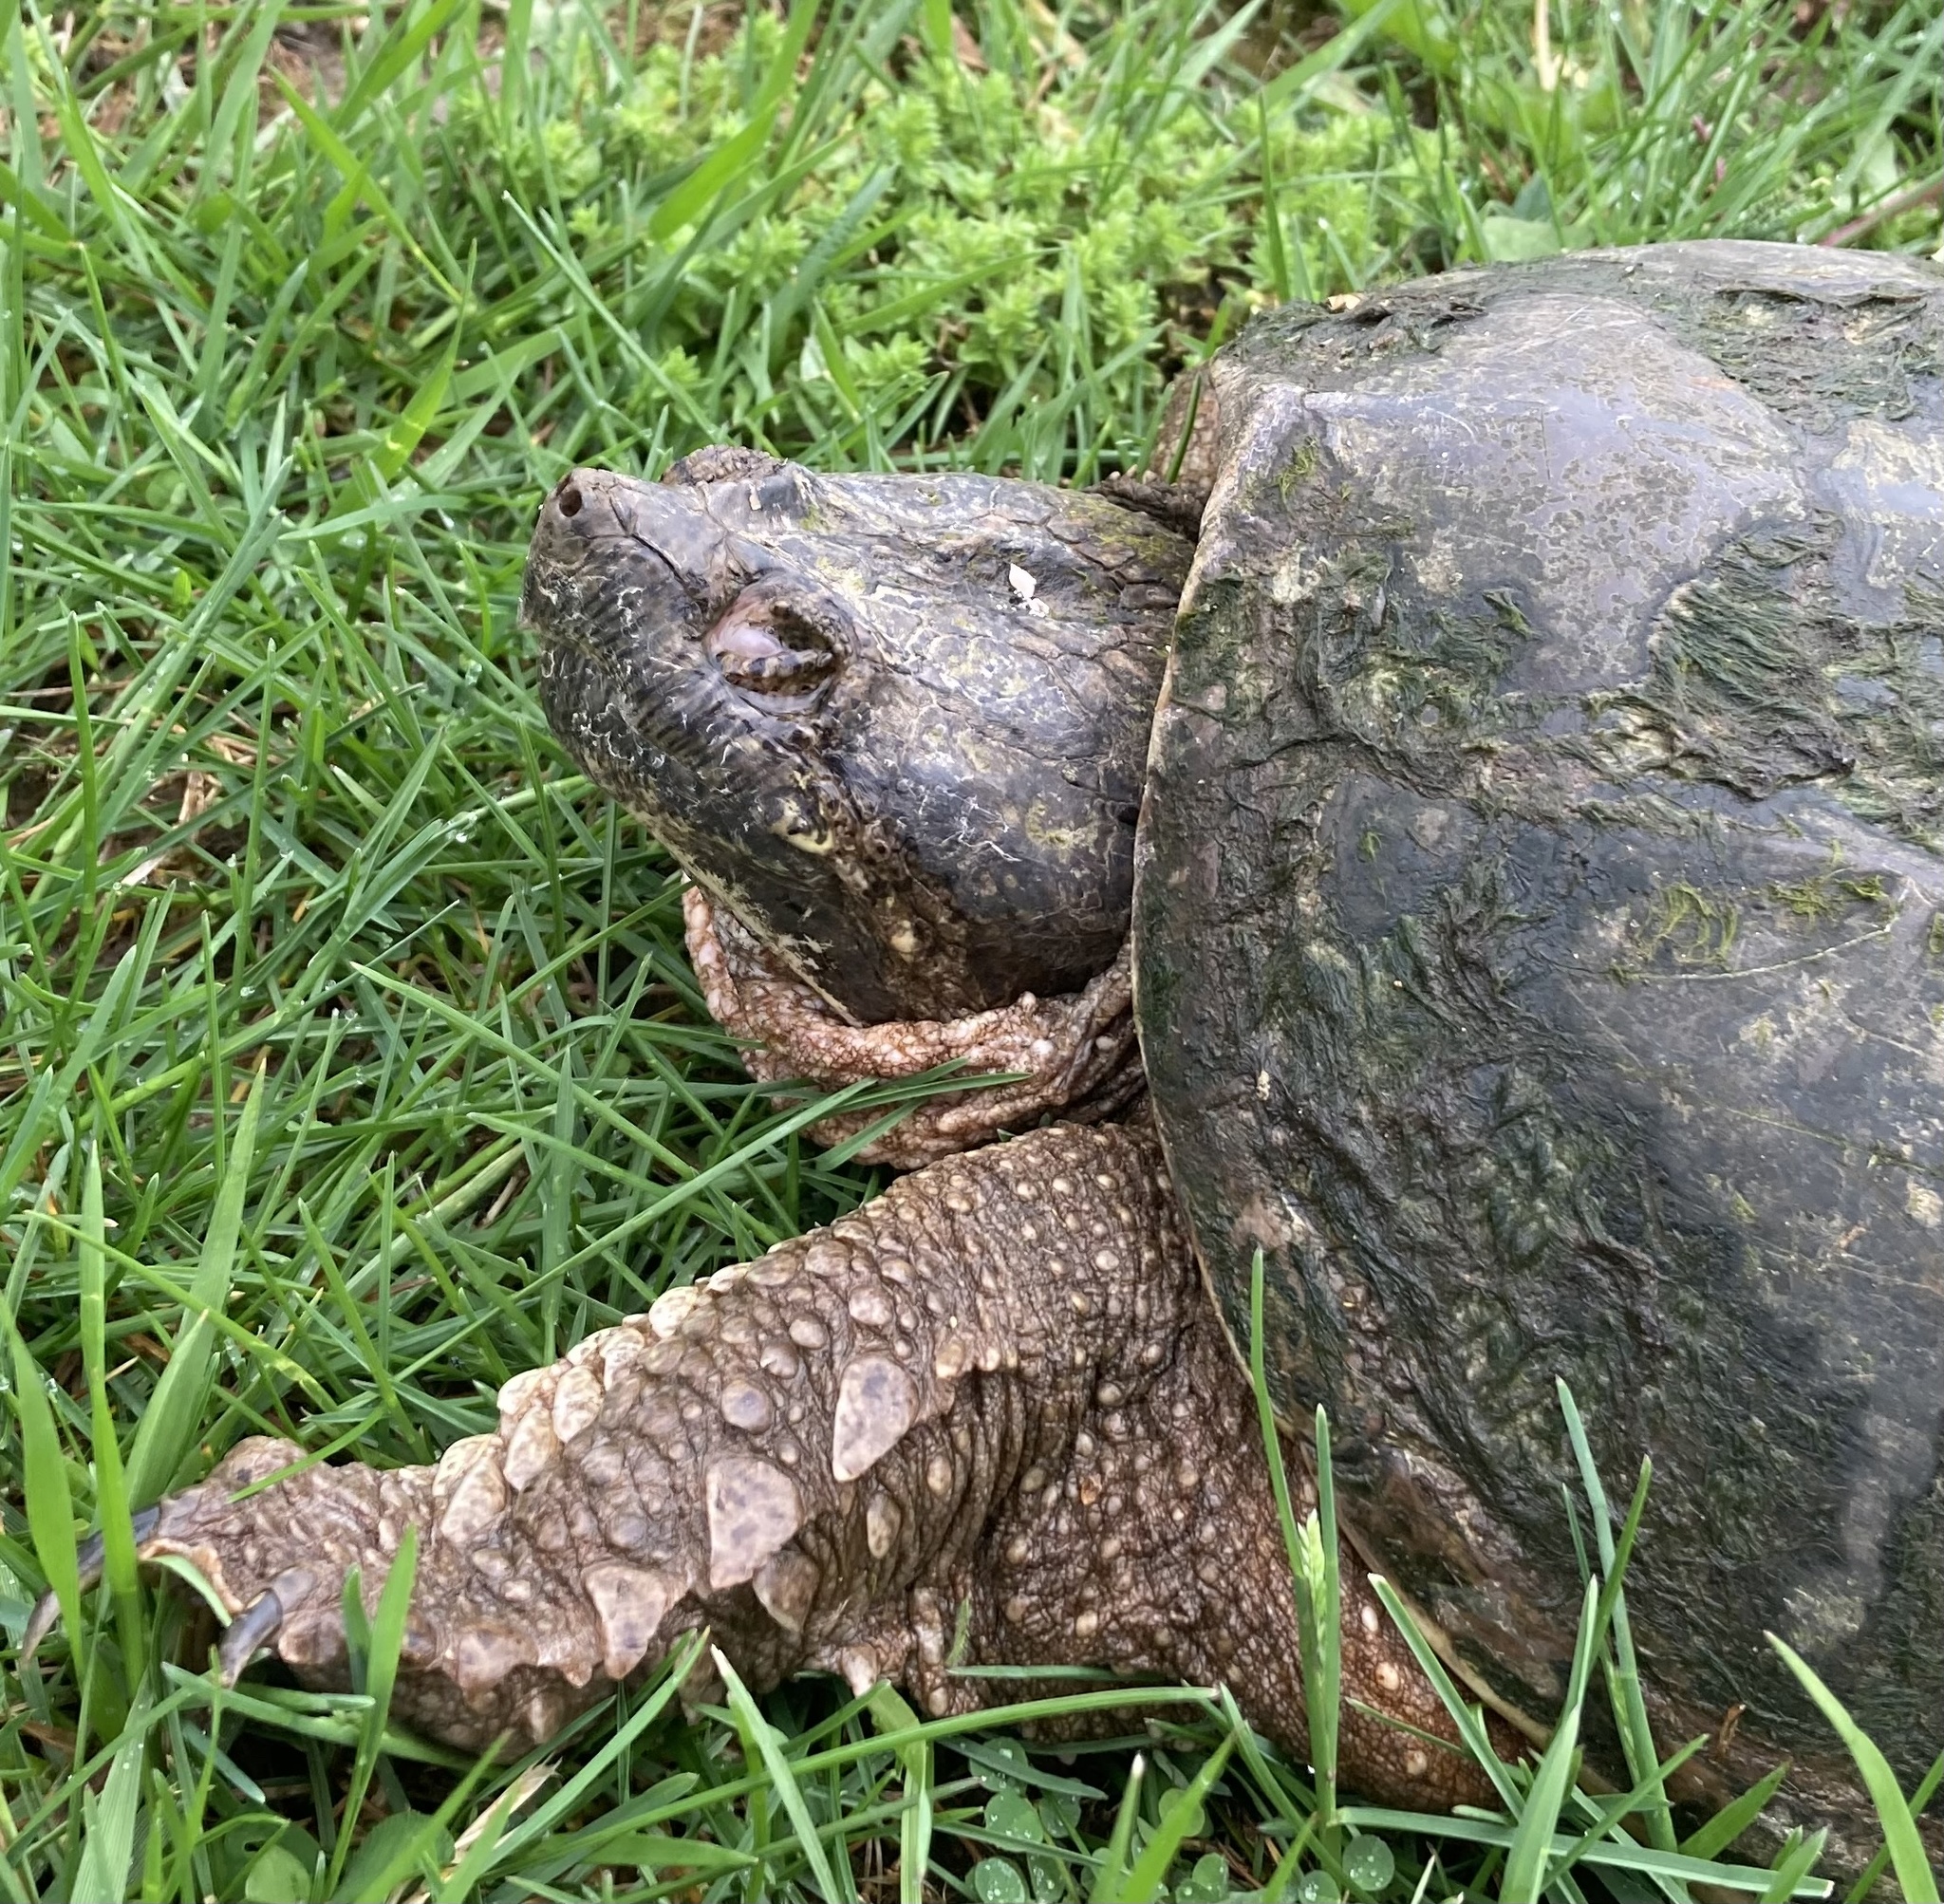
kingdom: Animalia
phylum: Chordata
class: Testudines
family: Chelydridae
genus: Chelydra
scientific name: Chelydra serpentina
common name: Common snapping turtle
